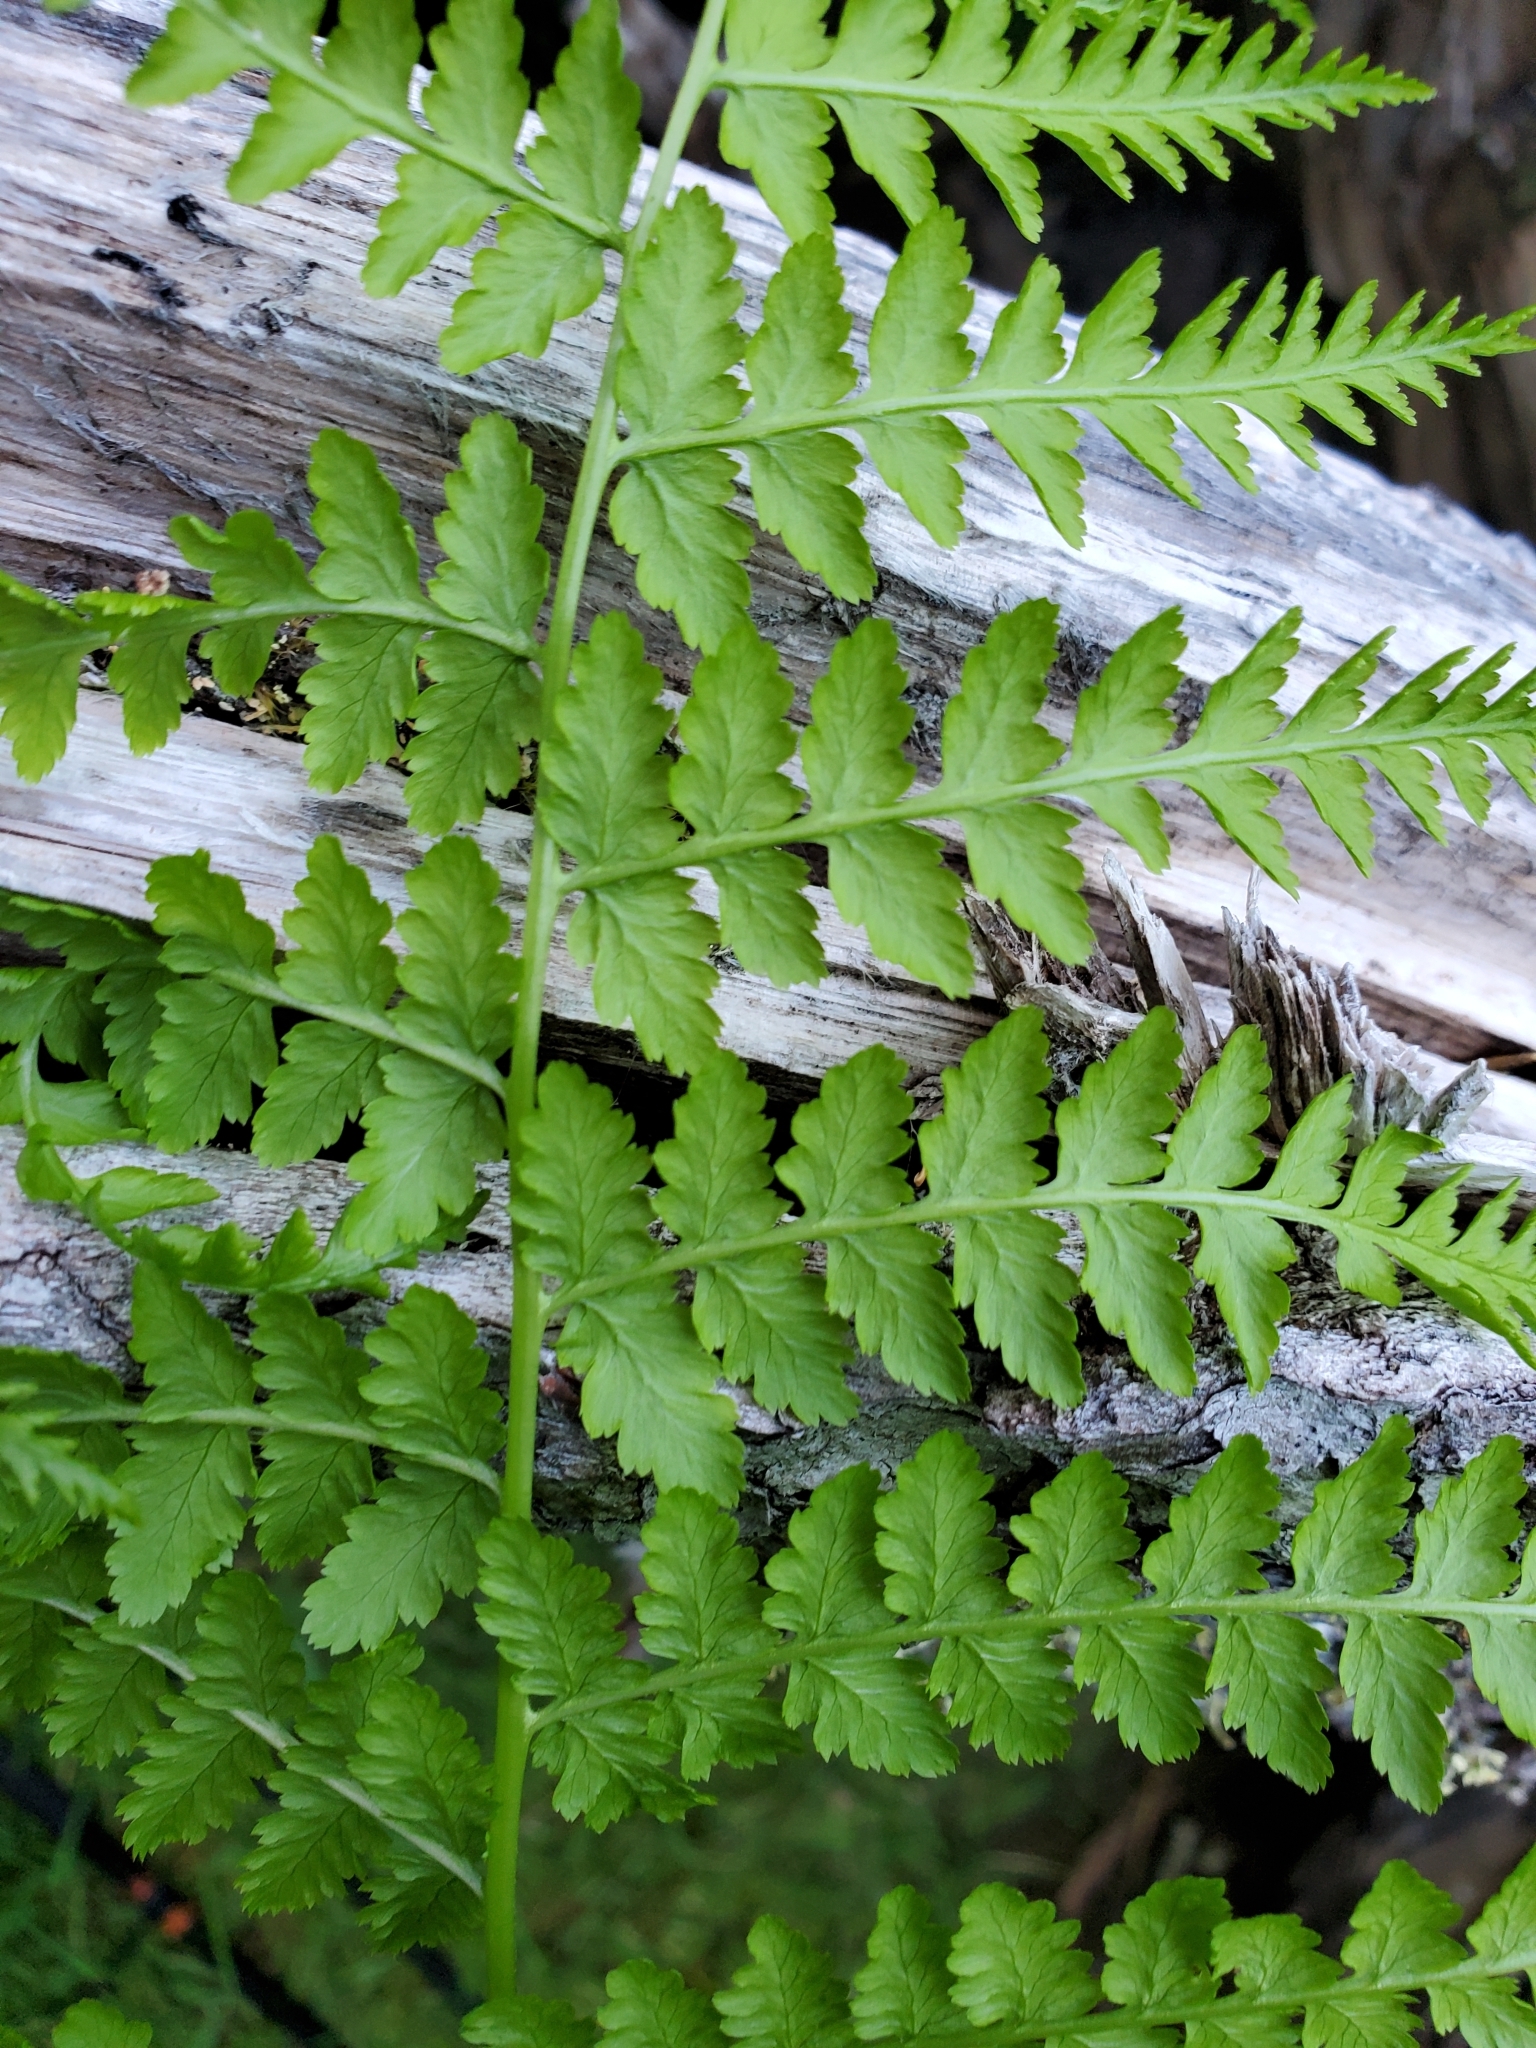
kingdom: Plantae
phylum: Tracheophyta
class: Polypodiopsida
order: Polypodiales
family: Athyriaceae
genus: Athyrium
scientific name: Athyrium filix-femina
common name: Lady fern
